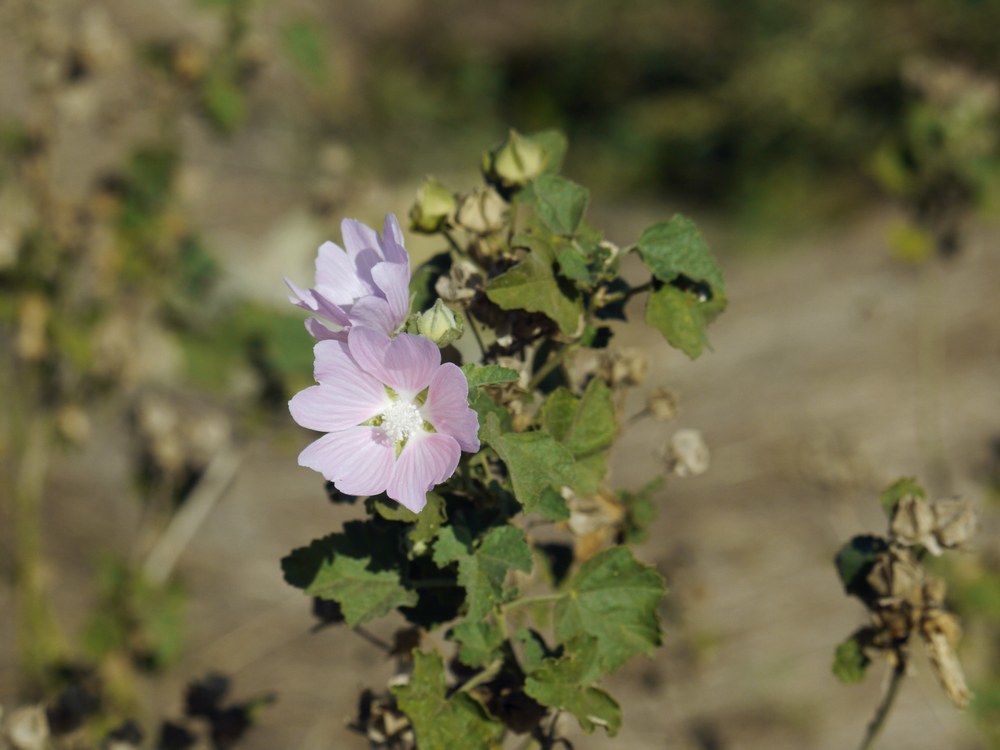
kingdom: Plantae
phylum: Tracheophyta
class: Magnoliopsida
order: Malvales
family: Malvaceae
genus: Malva
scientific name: Malva thuringiaca
